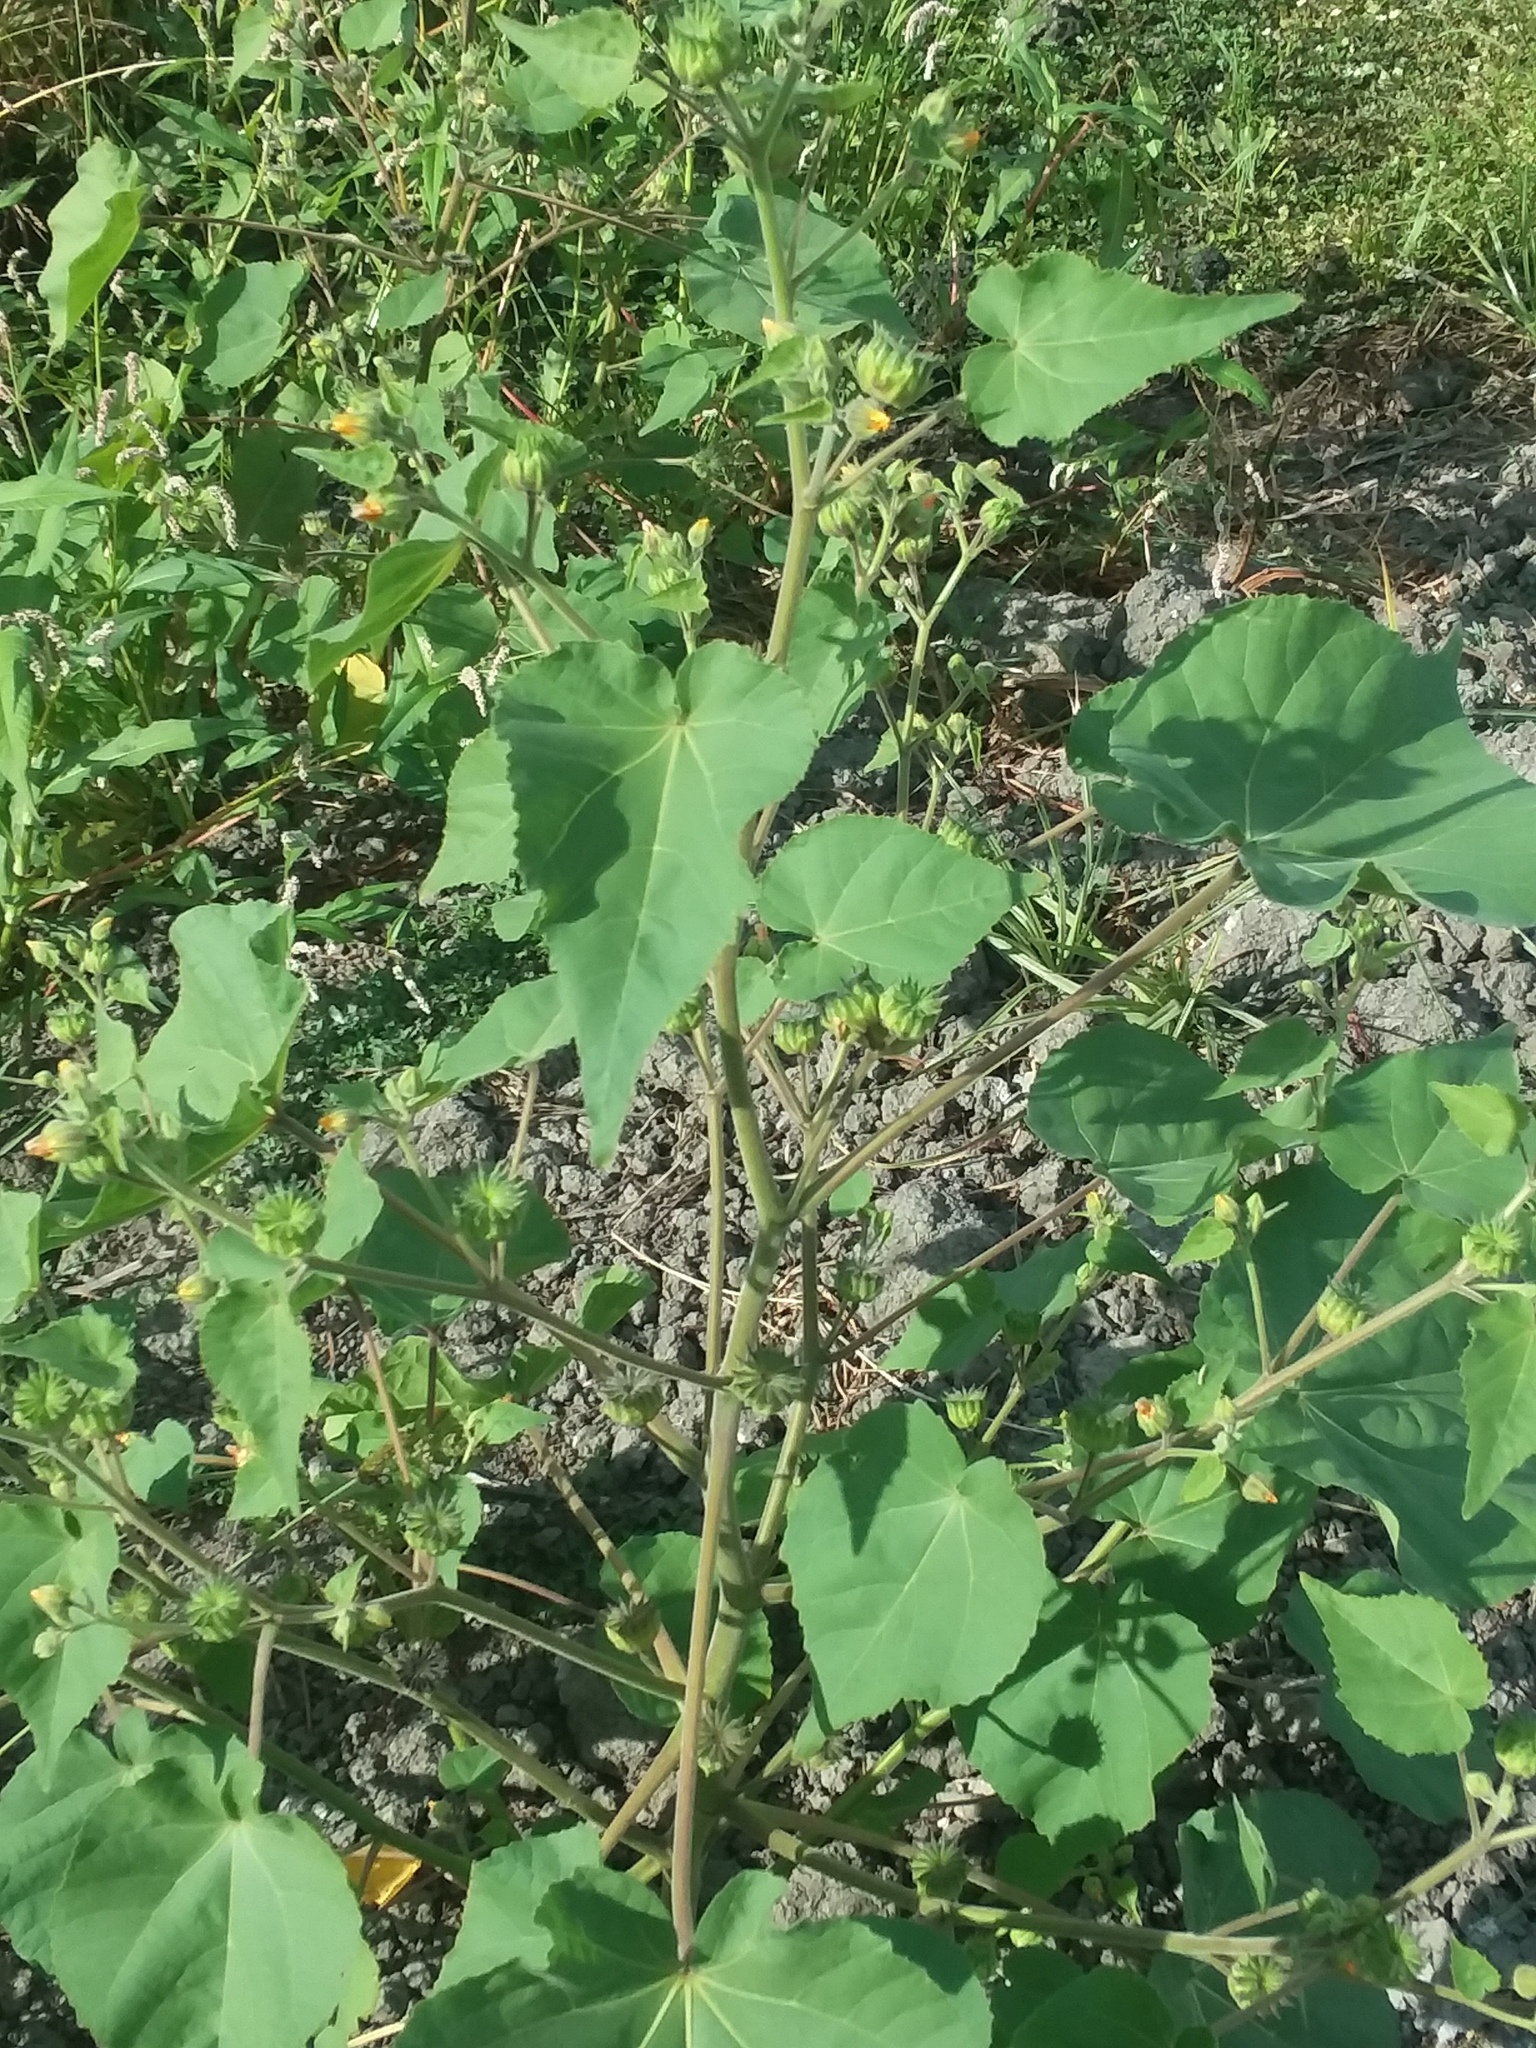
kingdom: Plantae
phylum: Tracheophyta
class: Magnoliopsida
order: Malvales
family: Malvaceae
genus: Abutilon
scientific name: Abutilon theophrasti
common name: Velvetleaf
